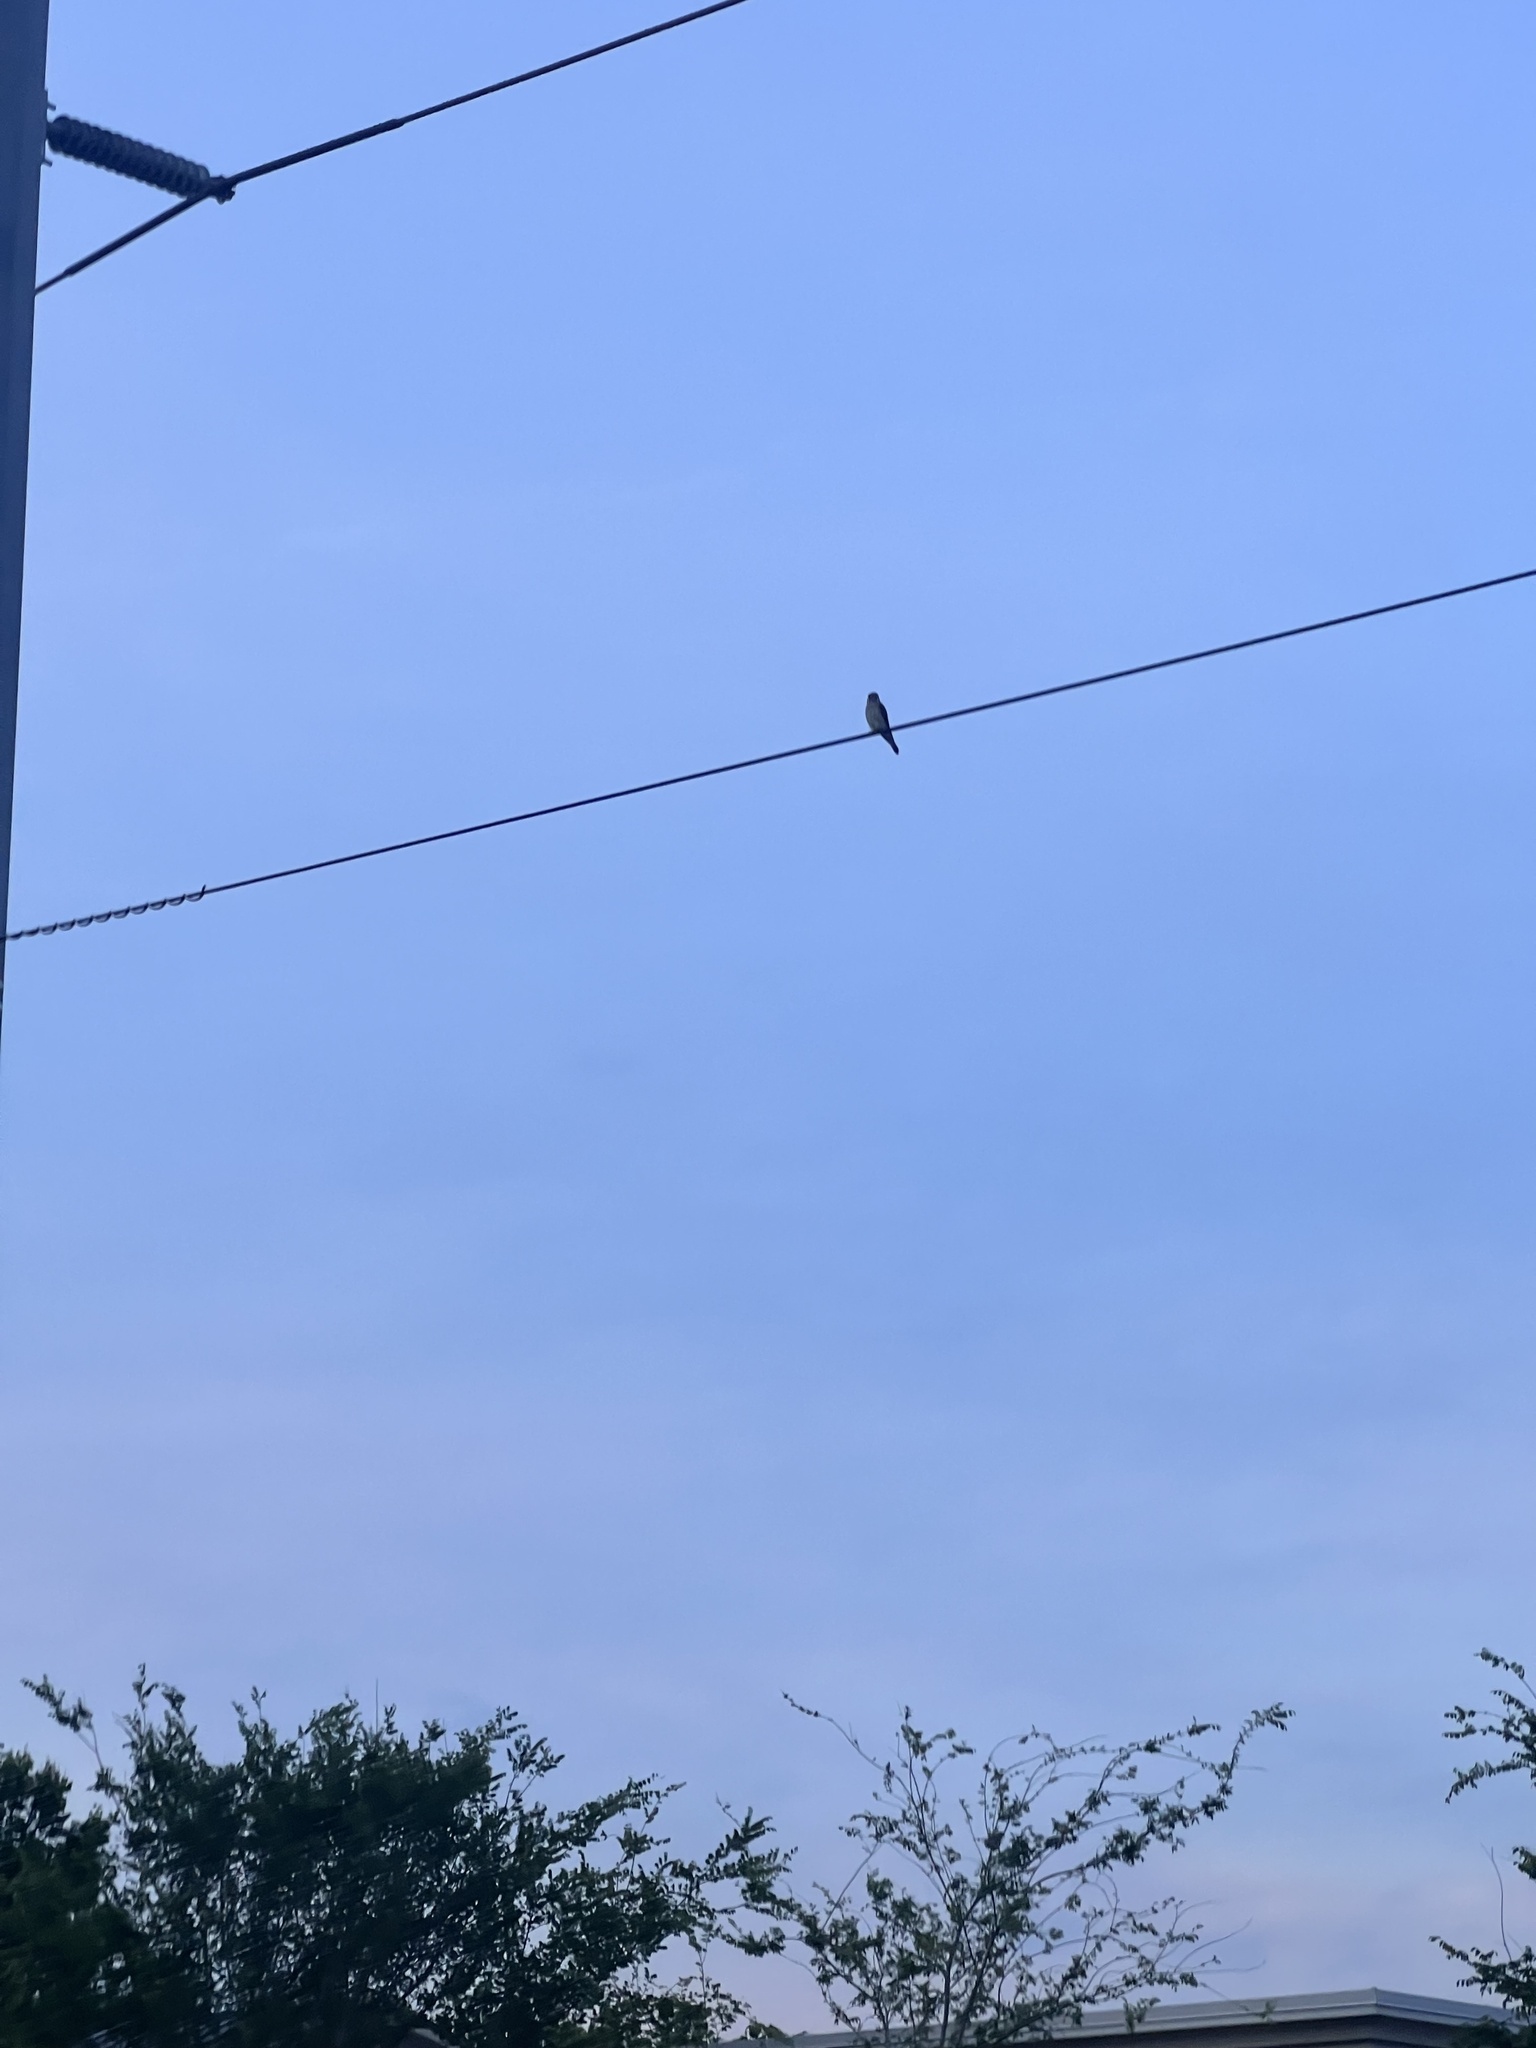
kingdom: Animalia
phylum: Chordata
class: Aves
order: Falconiformes
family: Falconidae
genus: Falco
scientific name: Falco sparverius
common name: American kestrel
